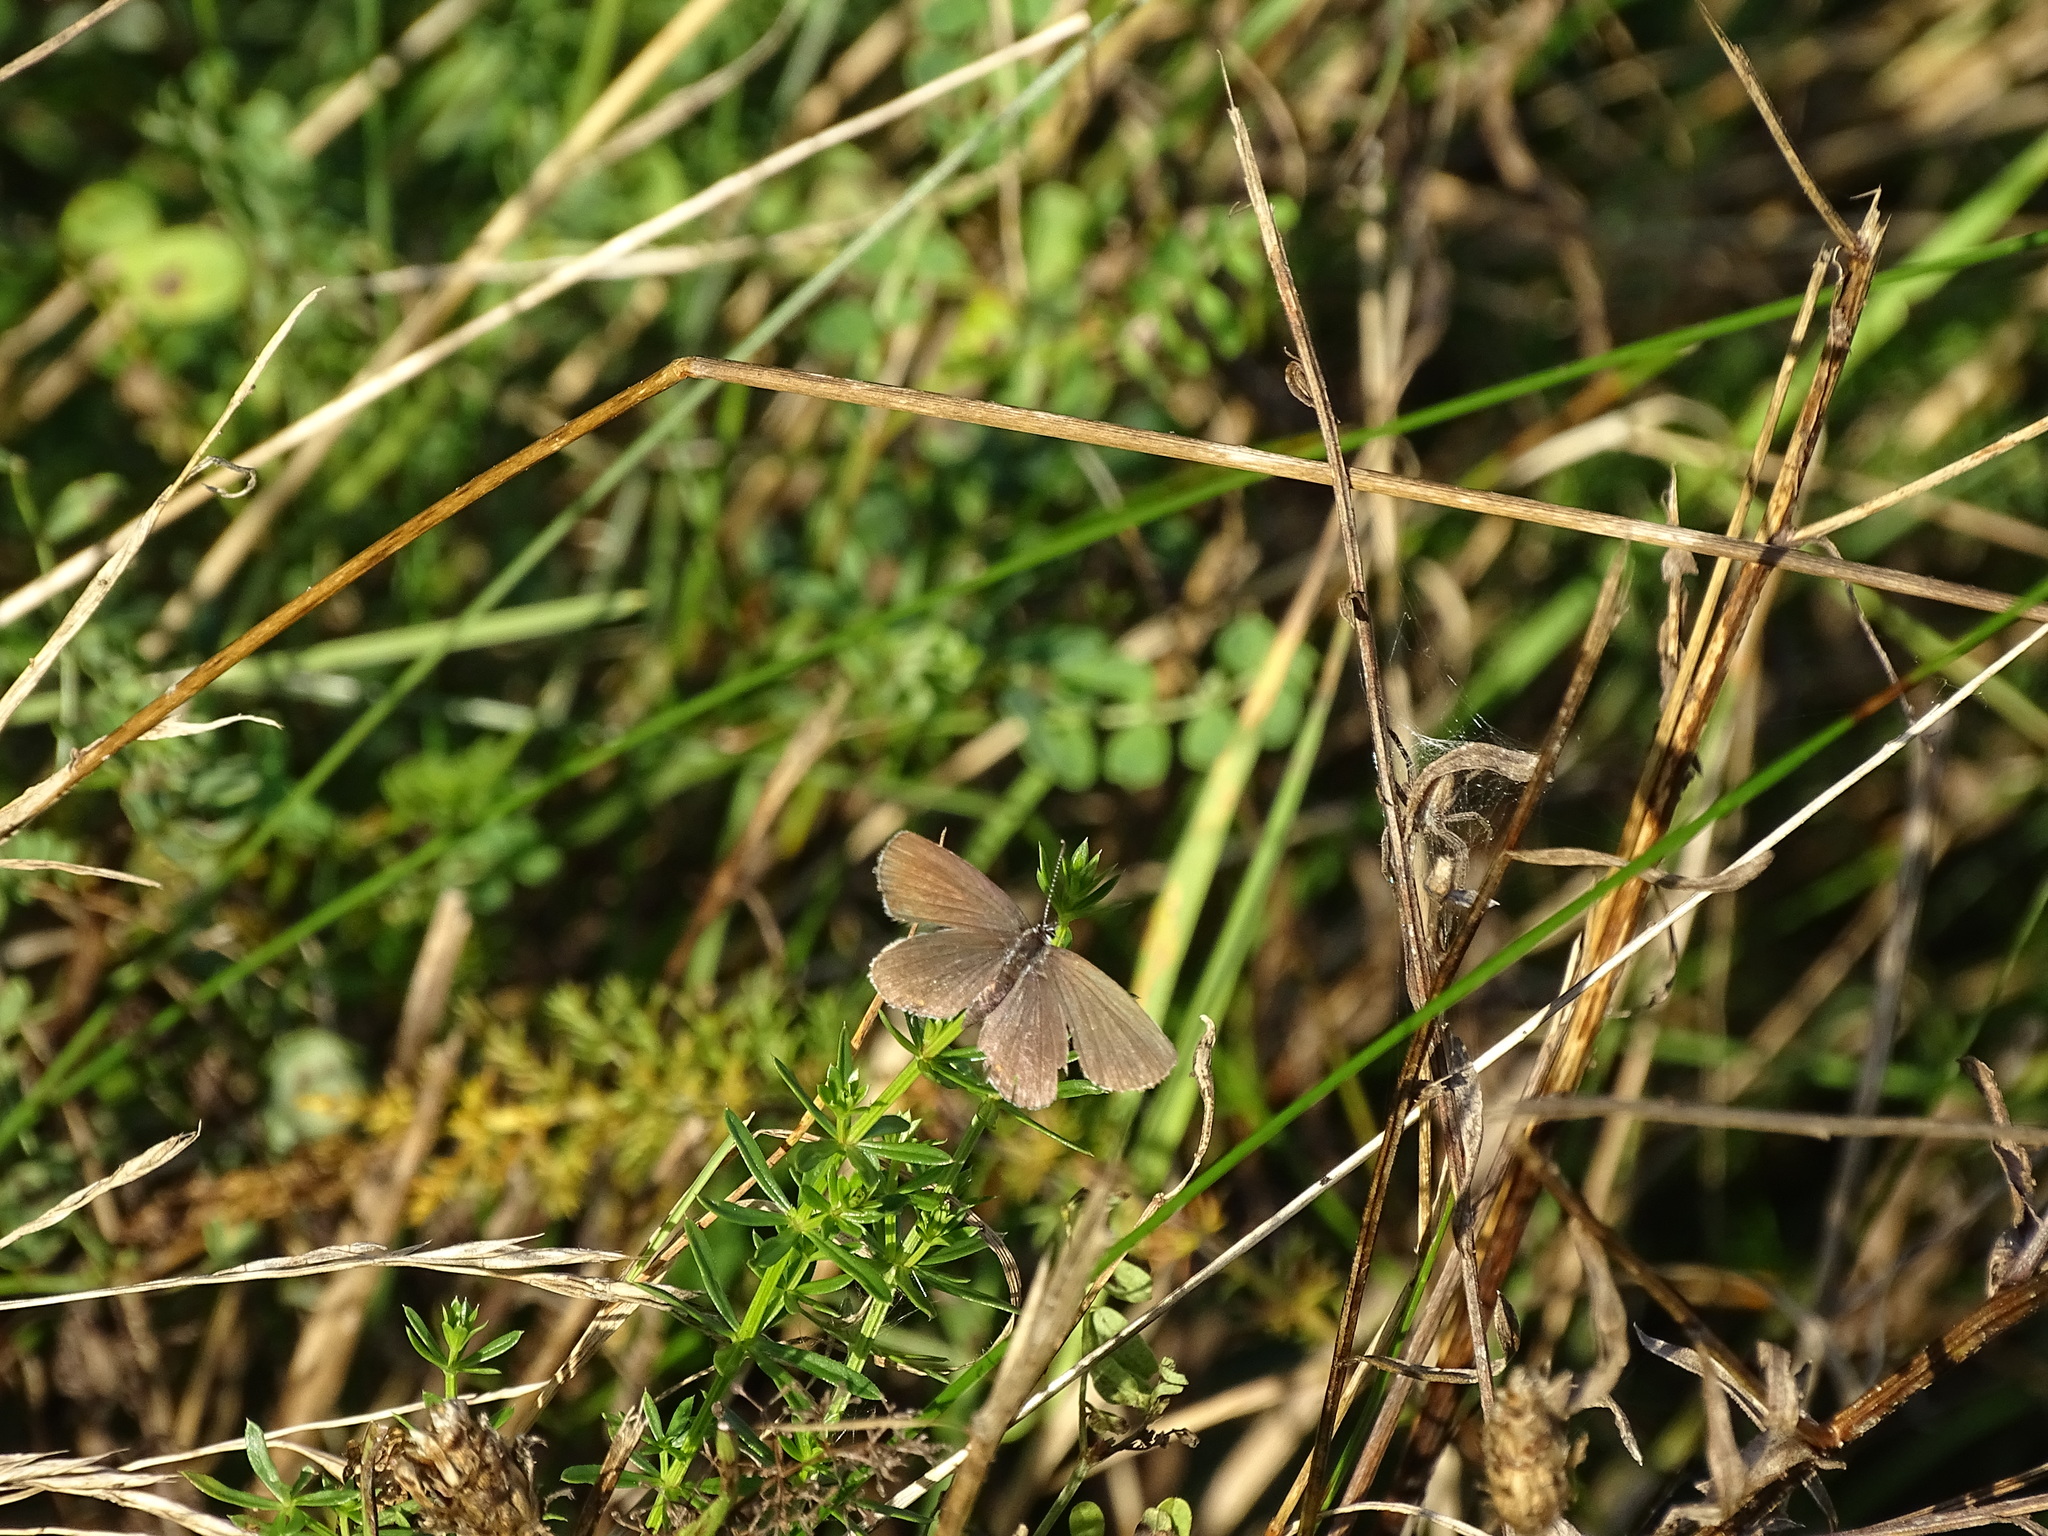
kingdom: Animalia
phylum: Arthropoda
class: Insecta
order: Lepidoptera
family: Lycaenidae
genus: Elkalyce
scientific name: Elkalyce argiades
